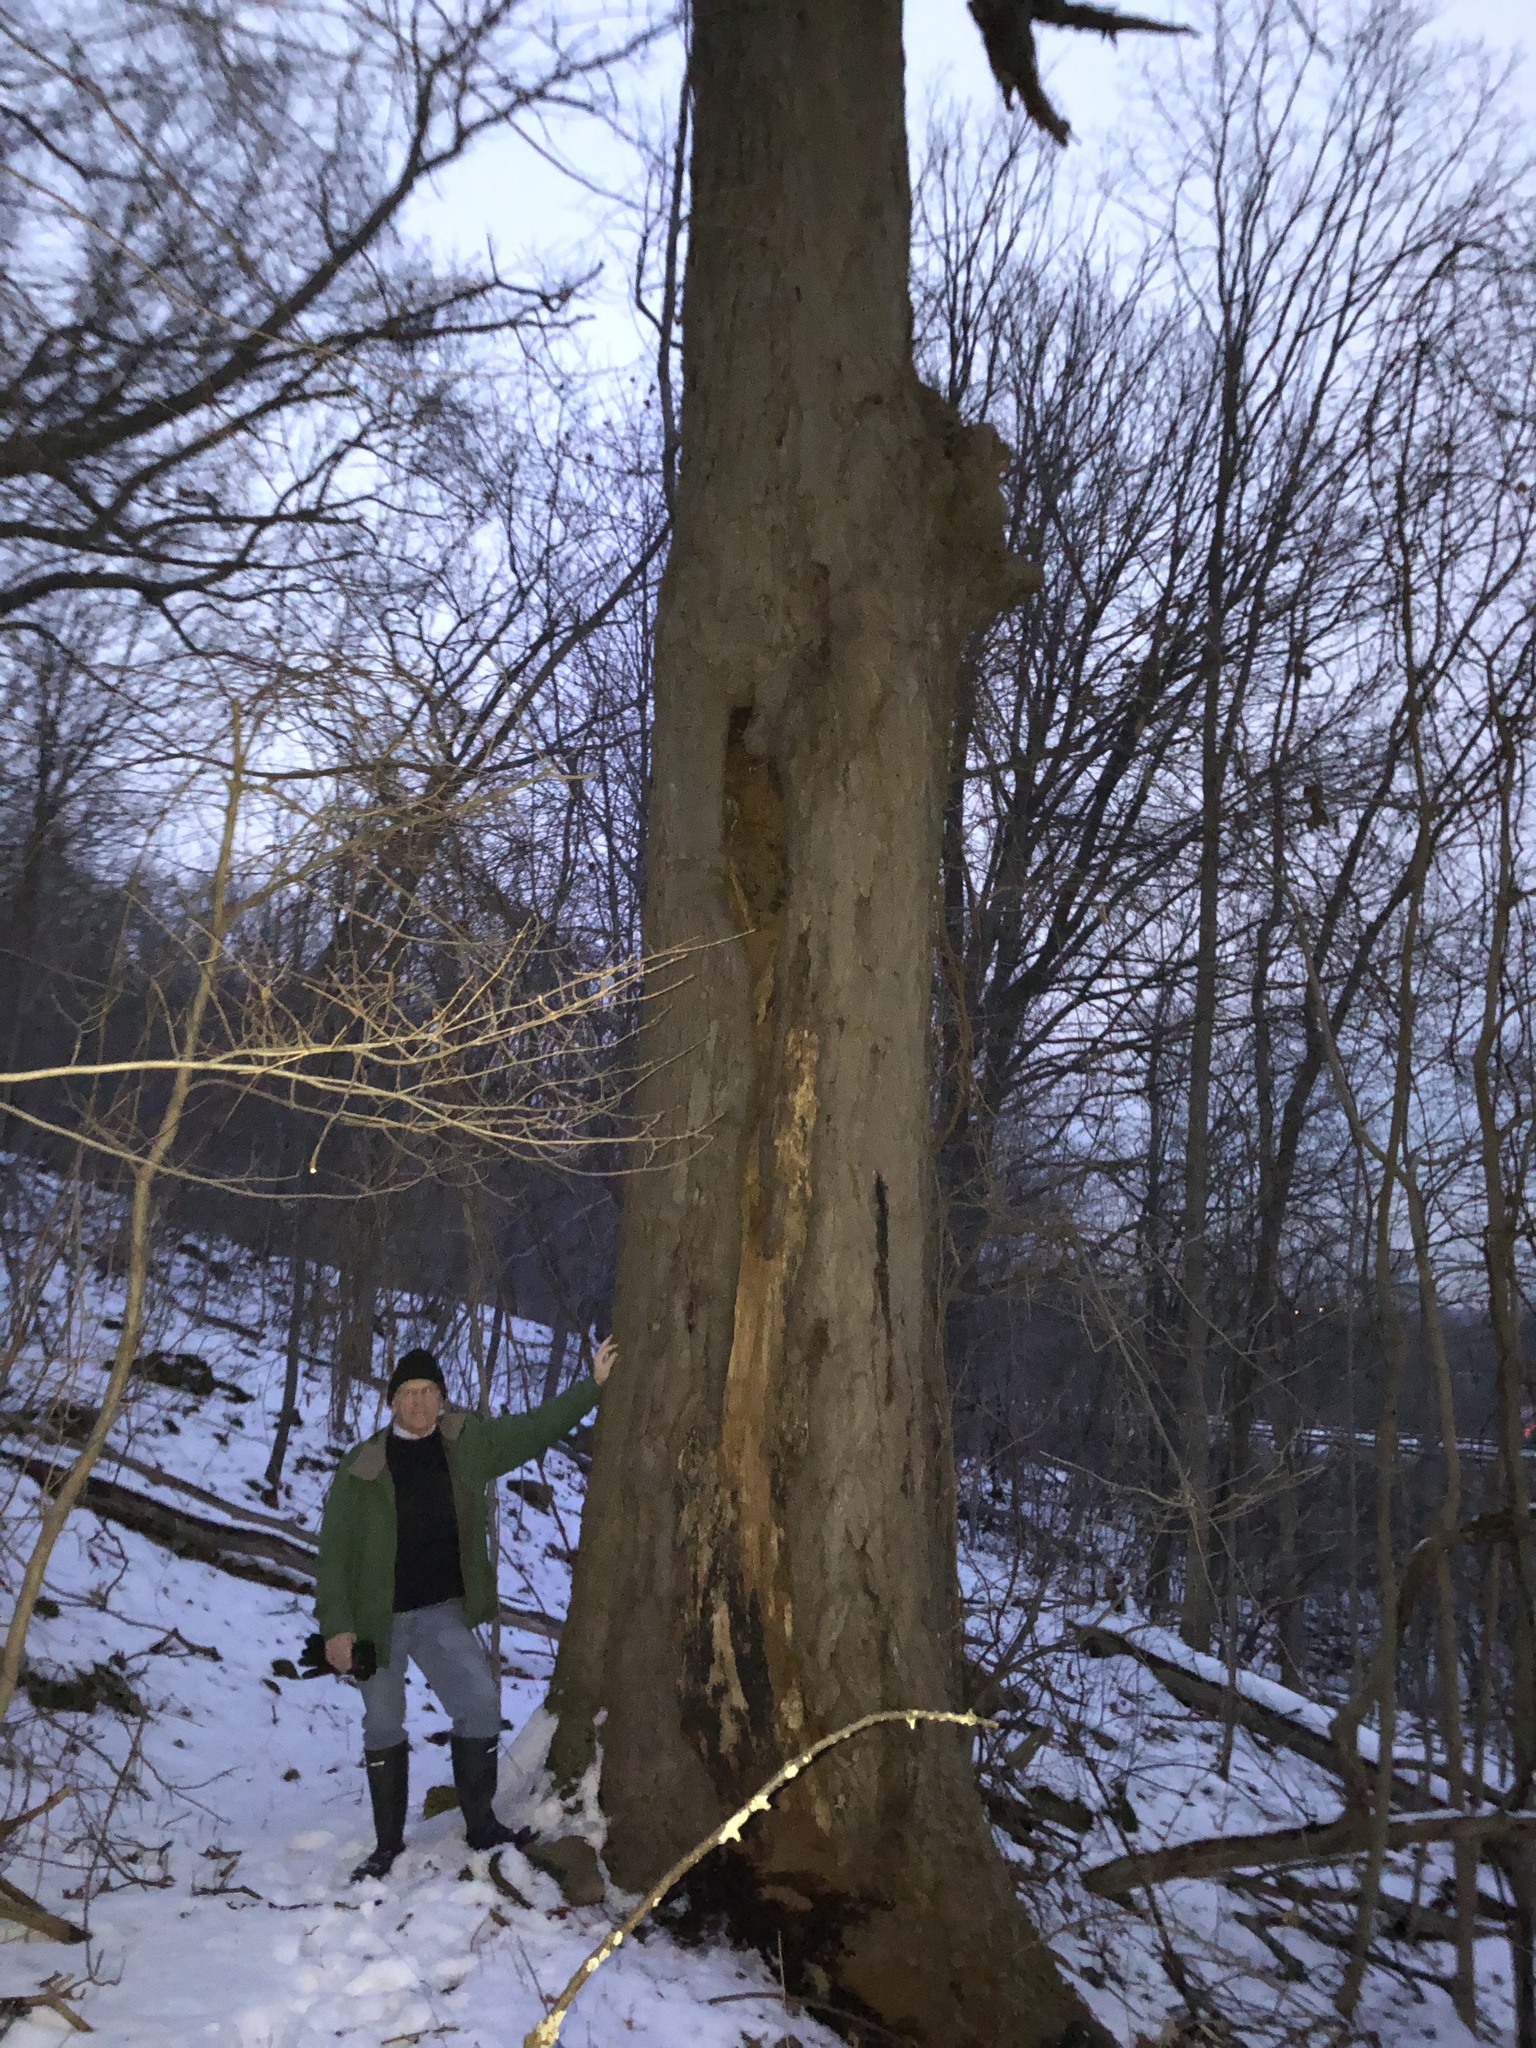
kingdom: Plantae
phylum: Tracheophyta
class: Magnoliopsida
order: Fagales
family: Fagaceae
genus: Quercus
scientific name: Quercus rubra
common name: Red oak
